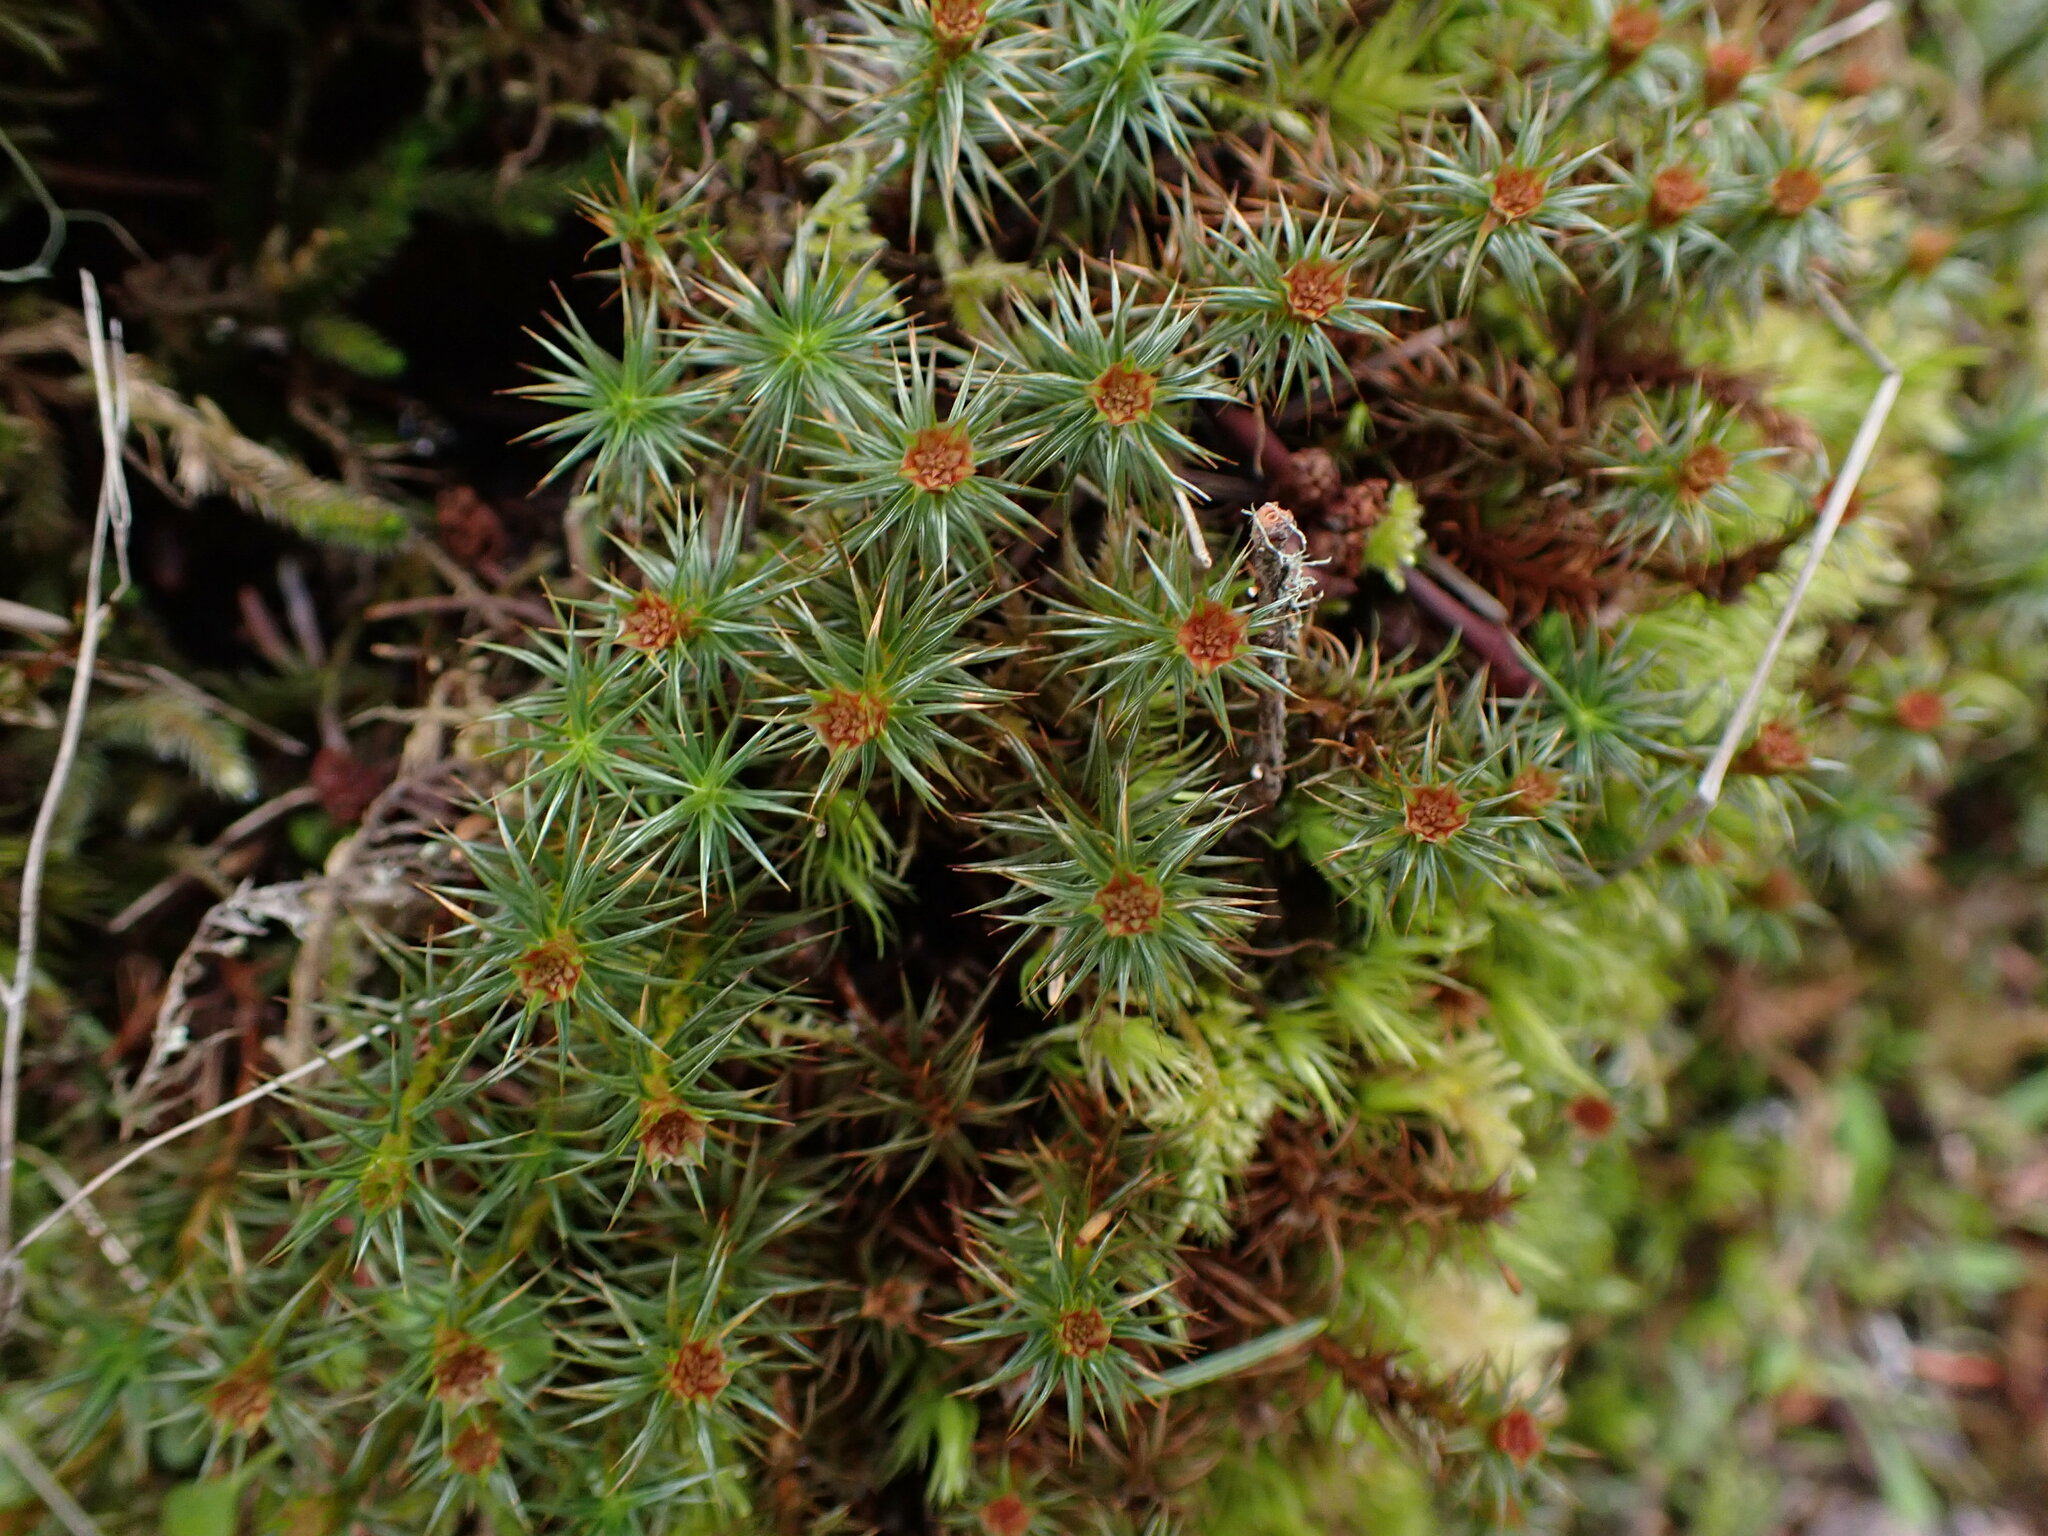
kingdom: Plantae
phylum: Bryophyta
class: Polytrichopsida
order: Polytrichales
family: Polytrichaceae
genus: Polytrichum
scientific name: Polytrichum juniperinum
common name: Juniper haircap moss
